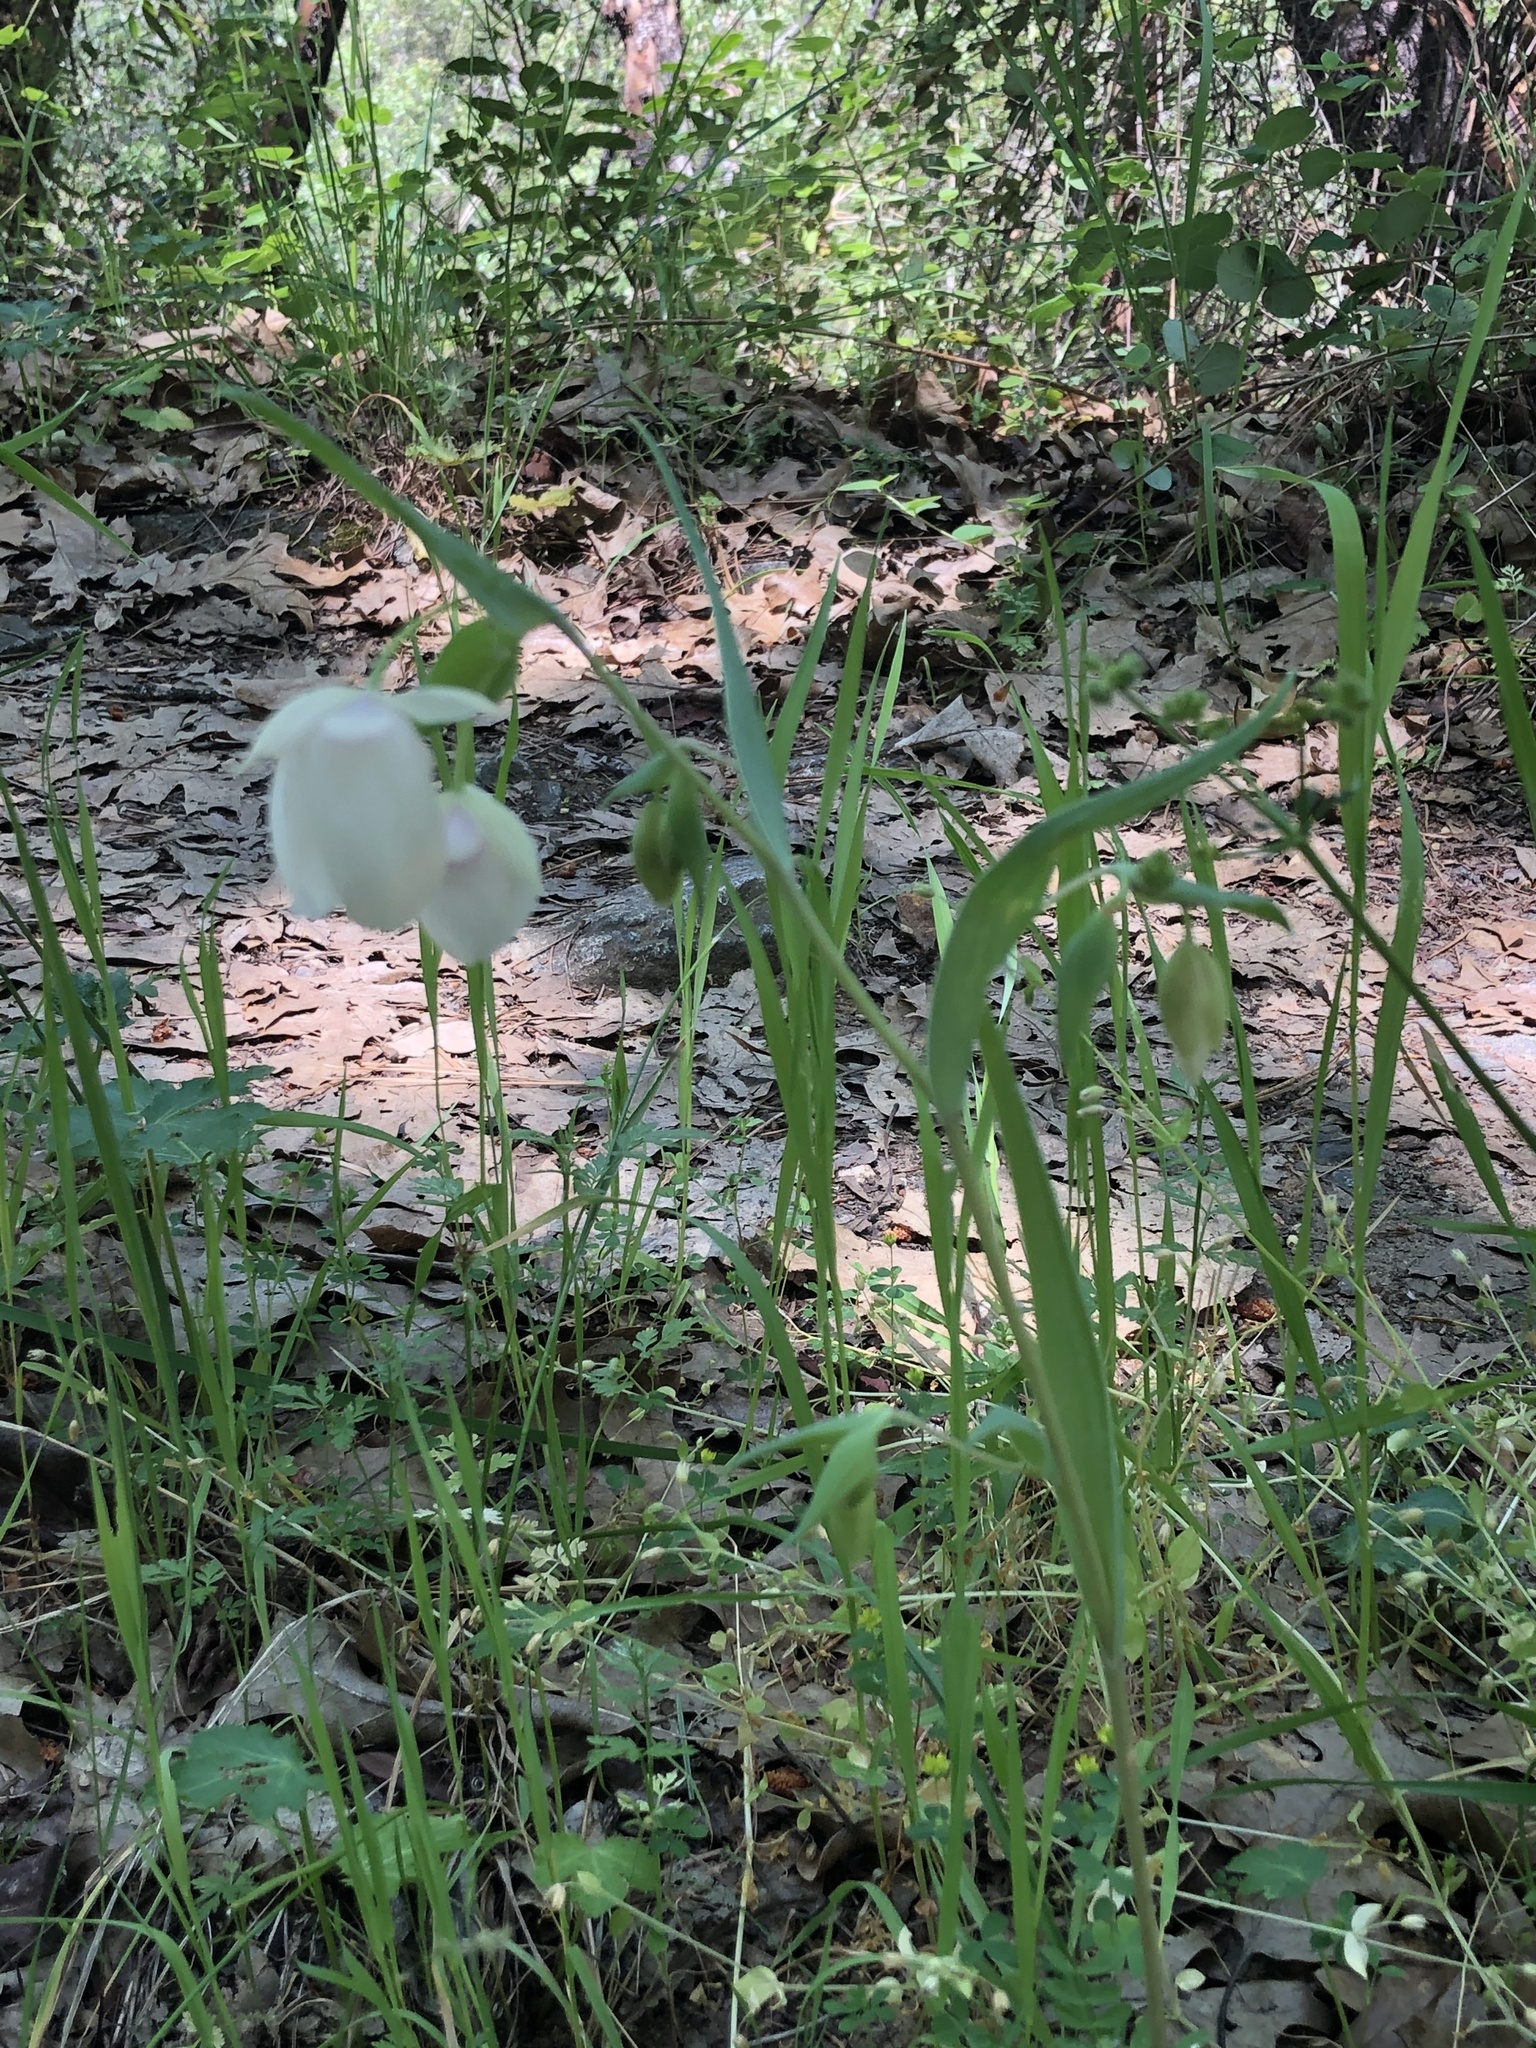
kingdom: Plantae
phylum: Tracheophyta
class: Liliopsida
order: Liliales
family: Liliaceae
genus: Calochortus
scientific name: Calochortus albus
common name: Fairy-lantern
